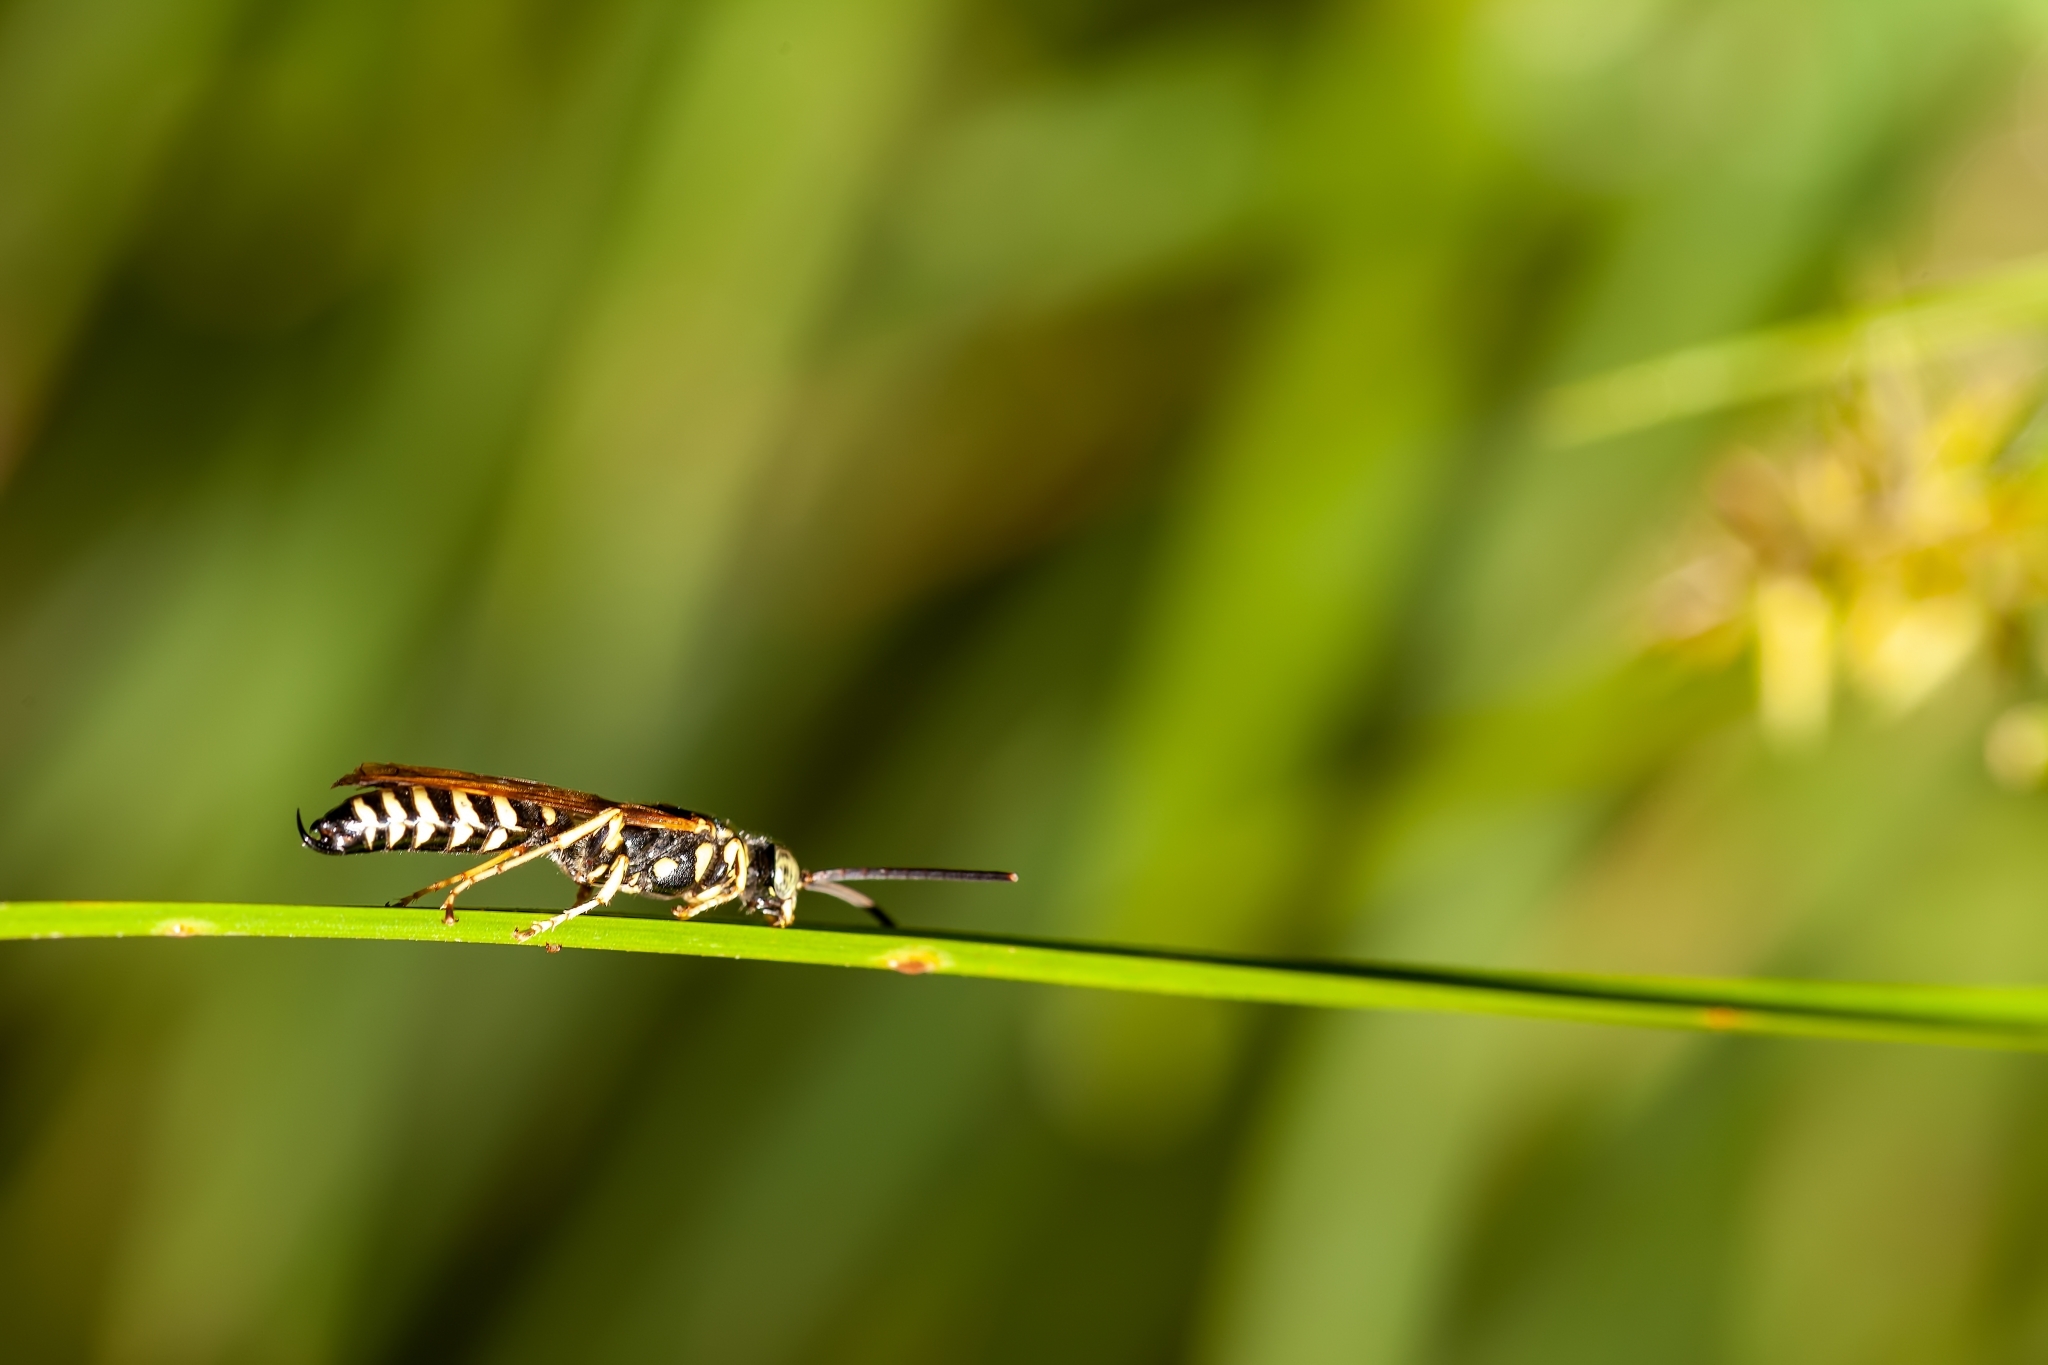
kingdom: Animalia
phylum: Arthropoda
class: Insecta
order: Hymenoptera
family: Tiphiidae
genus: Myzinum
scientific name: Myzinum
